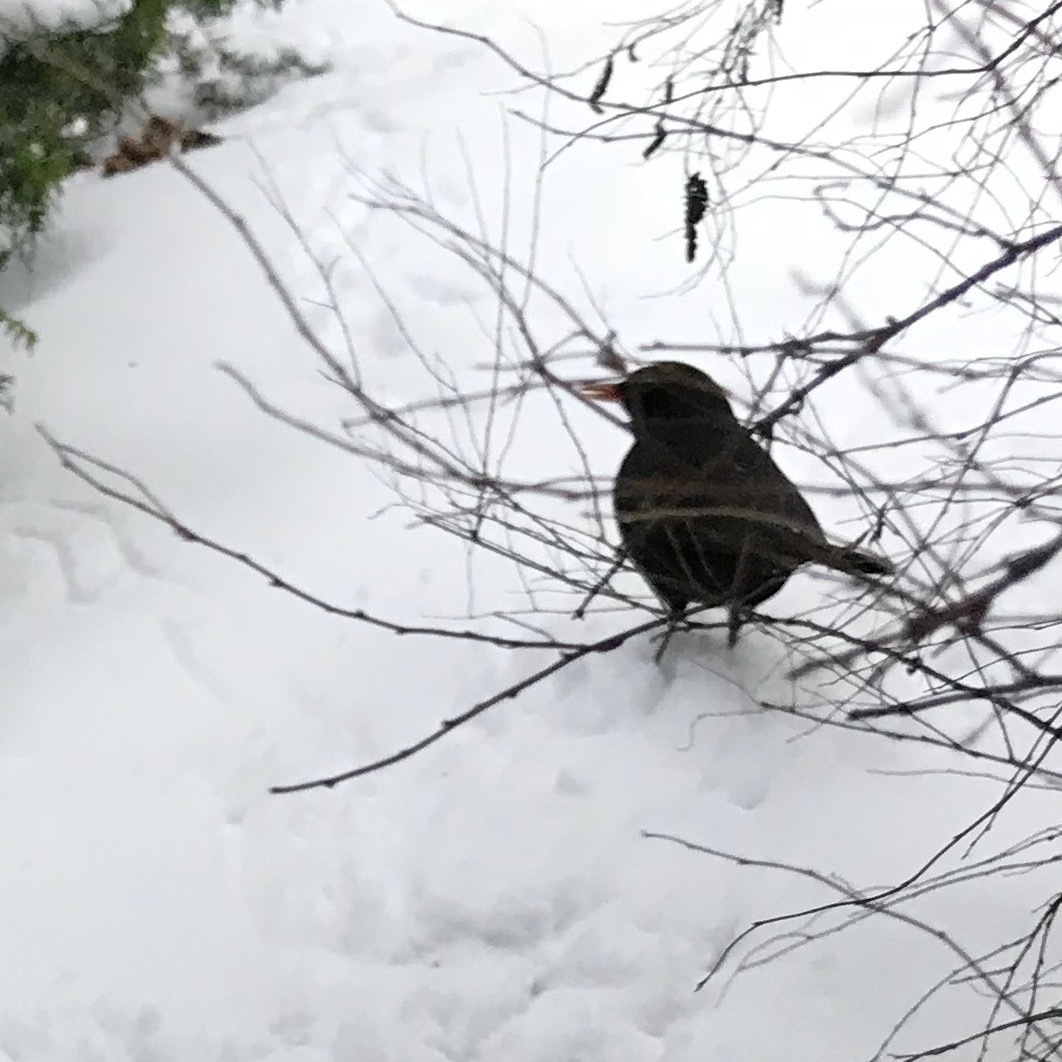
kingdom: Animalia
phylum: Chordata
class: Aves
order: Passeriformes
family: Turdidae
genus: Turdus
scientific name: Turdus merula
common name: Common blackbird
